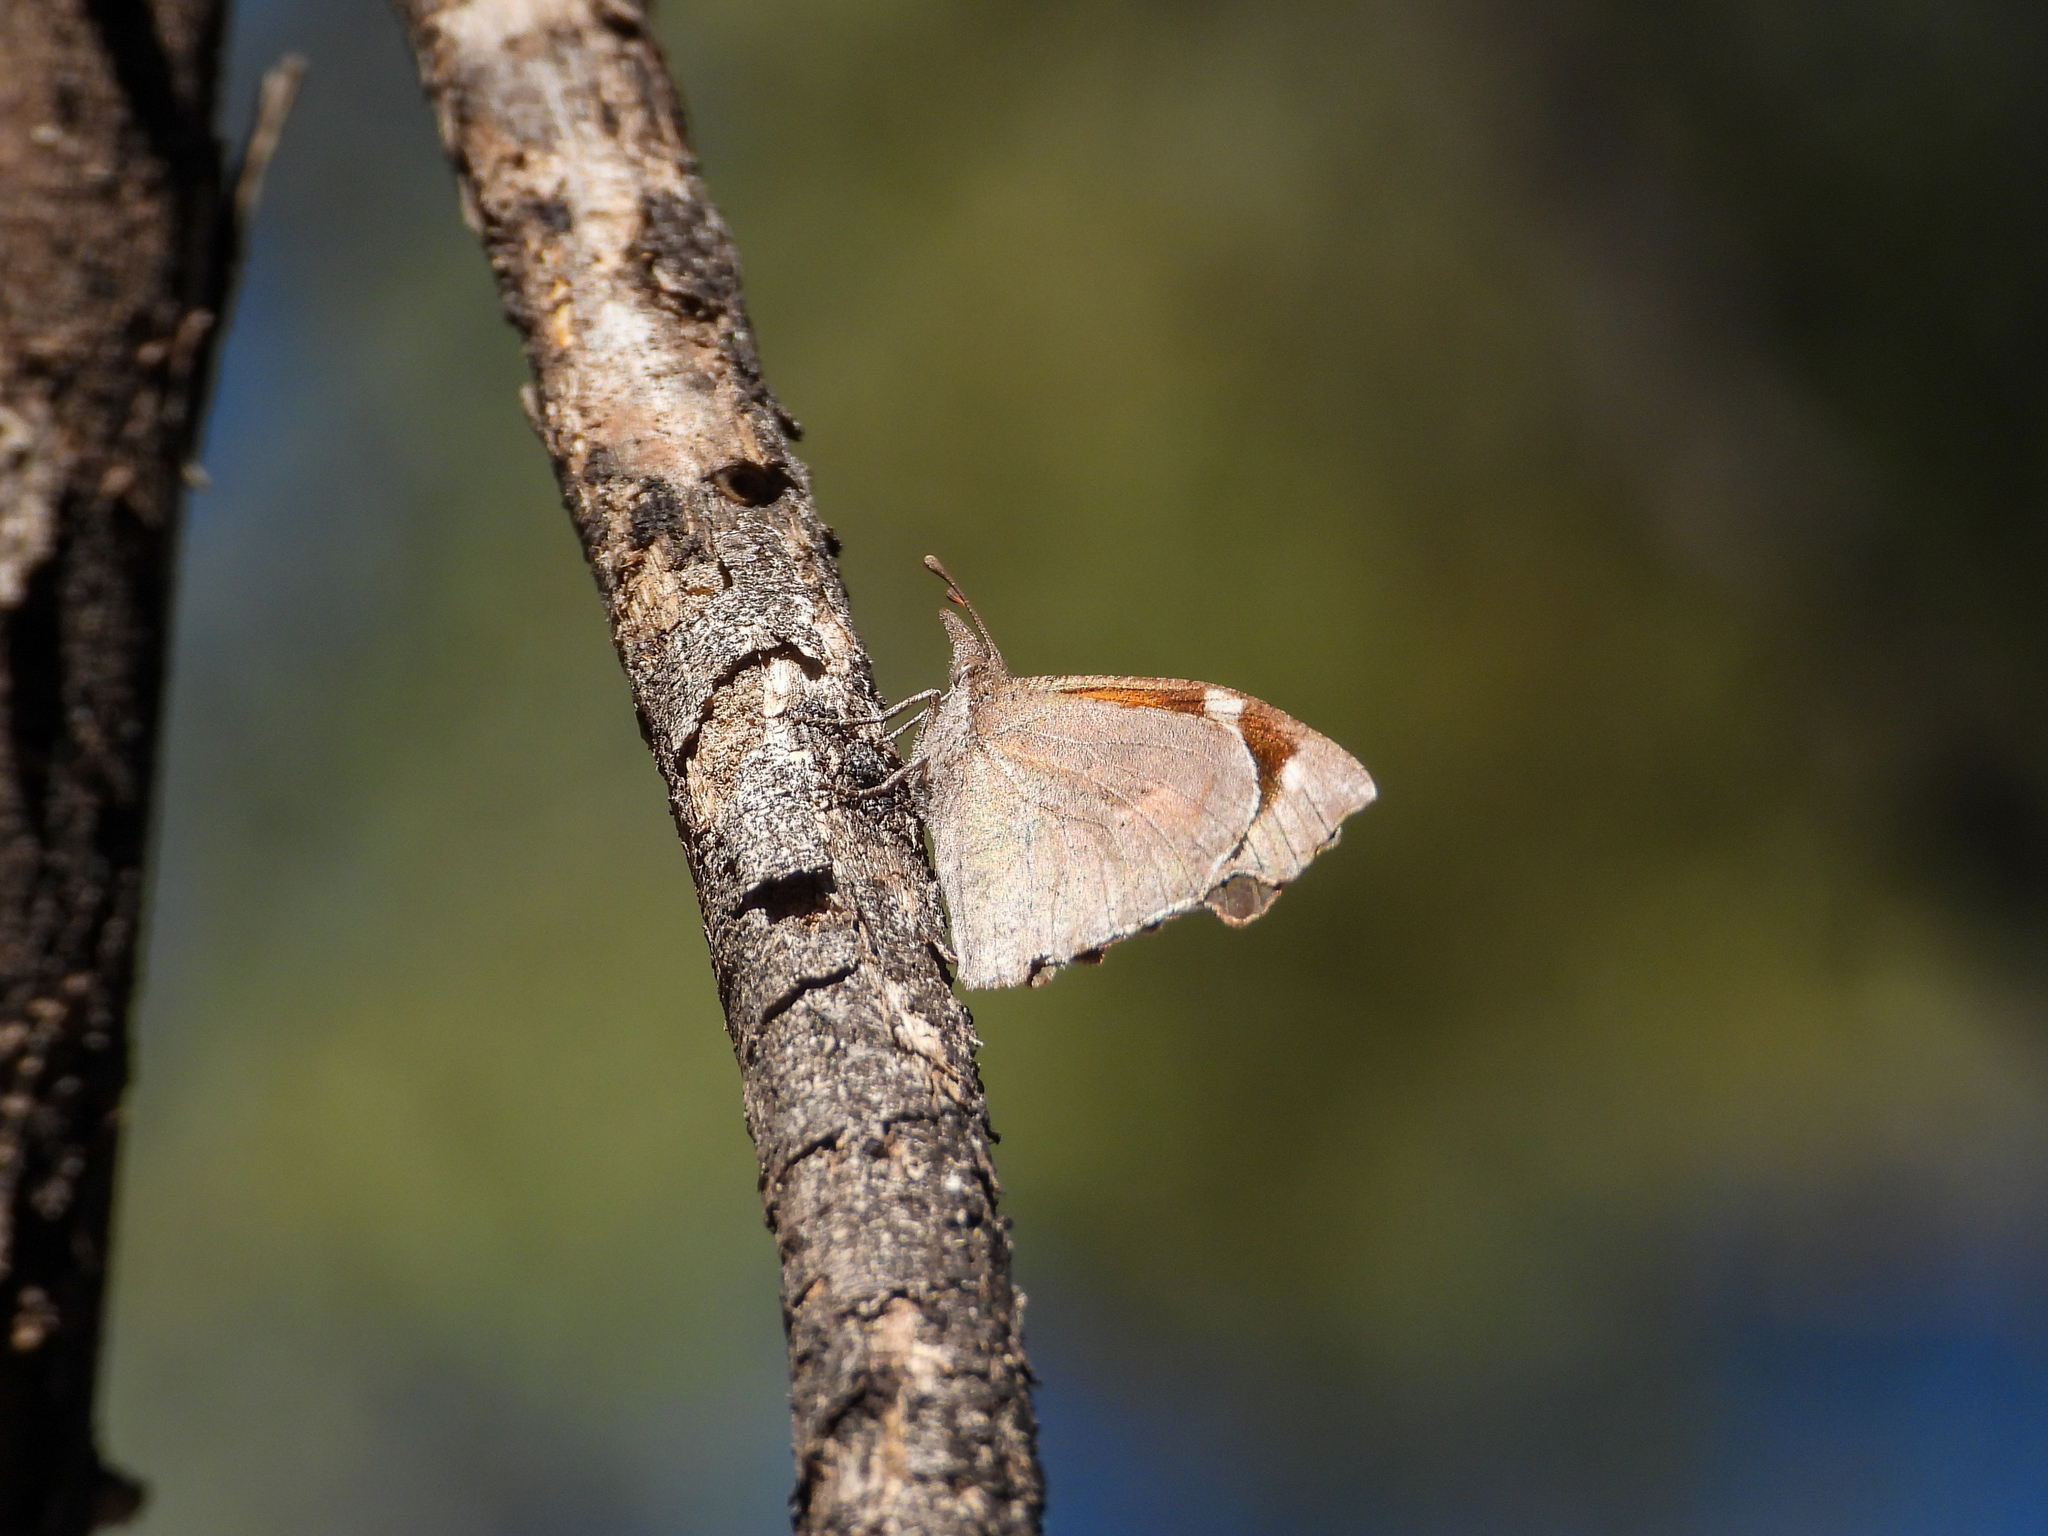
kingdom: Animalia
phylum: Arthropoda
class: Insecta
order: Lepidoptera
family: Nymphalidae
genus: Libytheana
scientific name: Libytheana carinenta
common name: American snout
